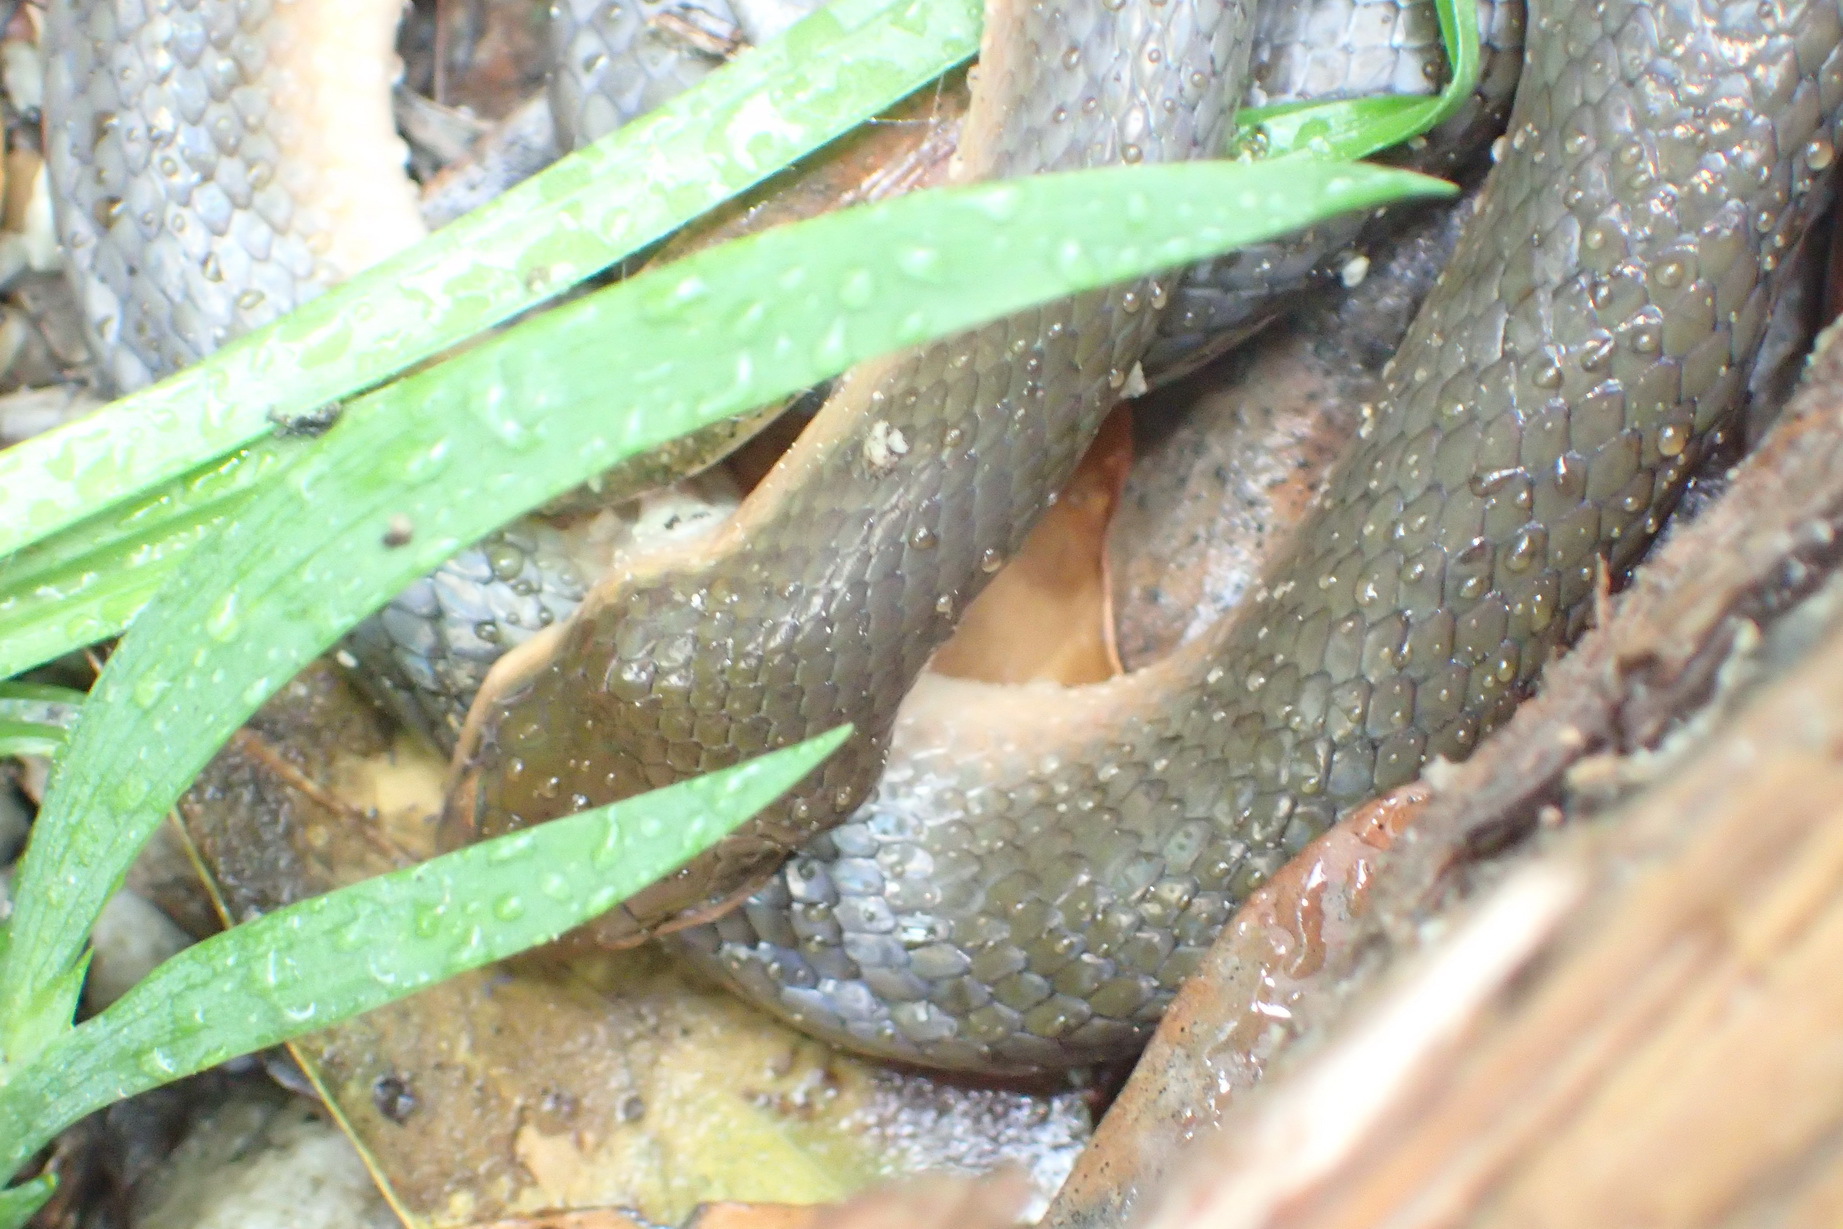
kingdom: Animalia
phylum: Chordata
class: Squamata
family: Lamprophiidae
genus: Lycodonomorphus
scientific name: Lycodonomorphus rufulus
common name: Brown water snake
